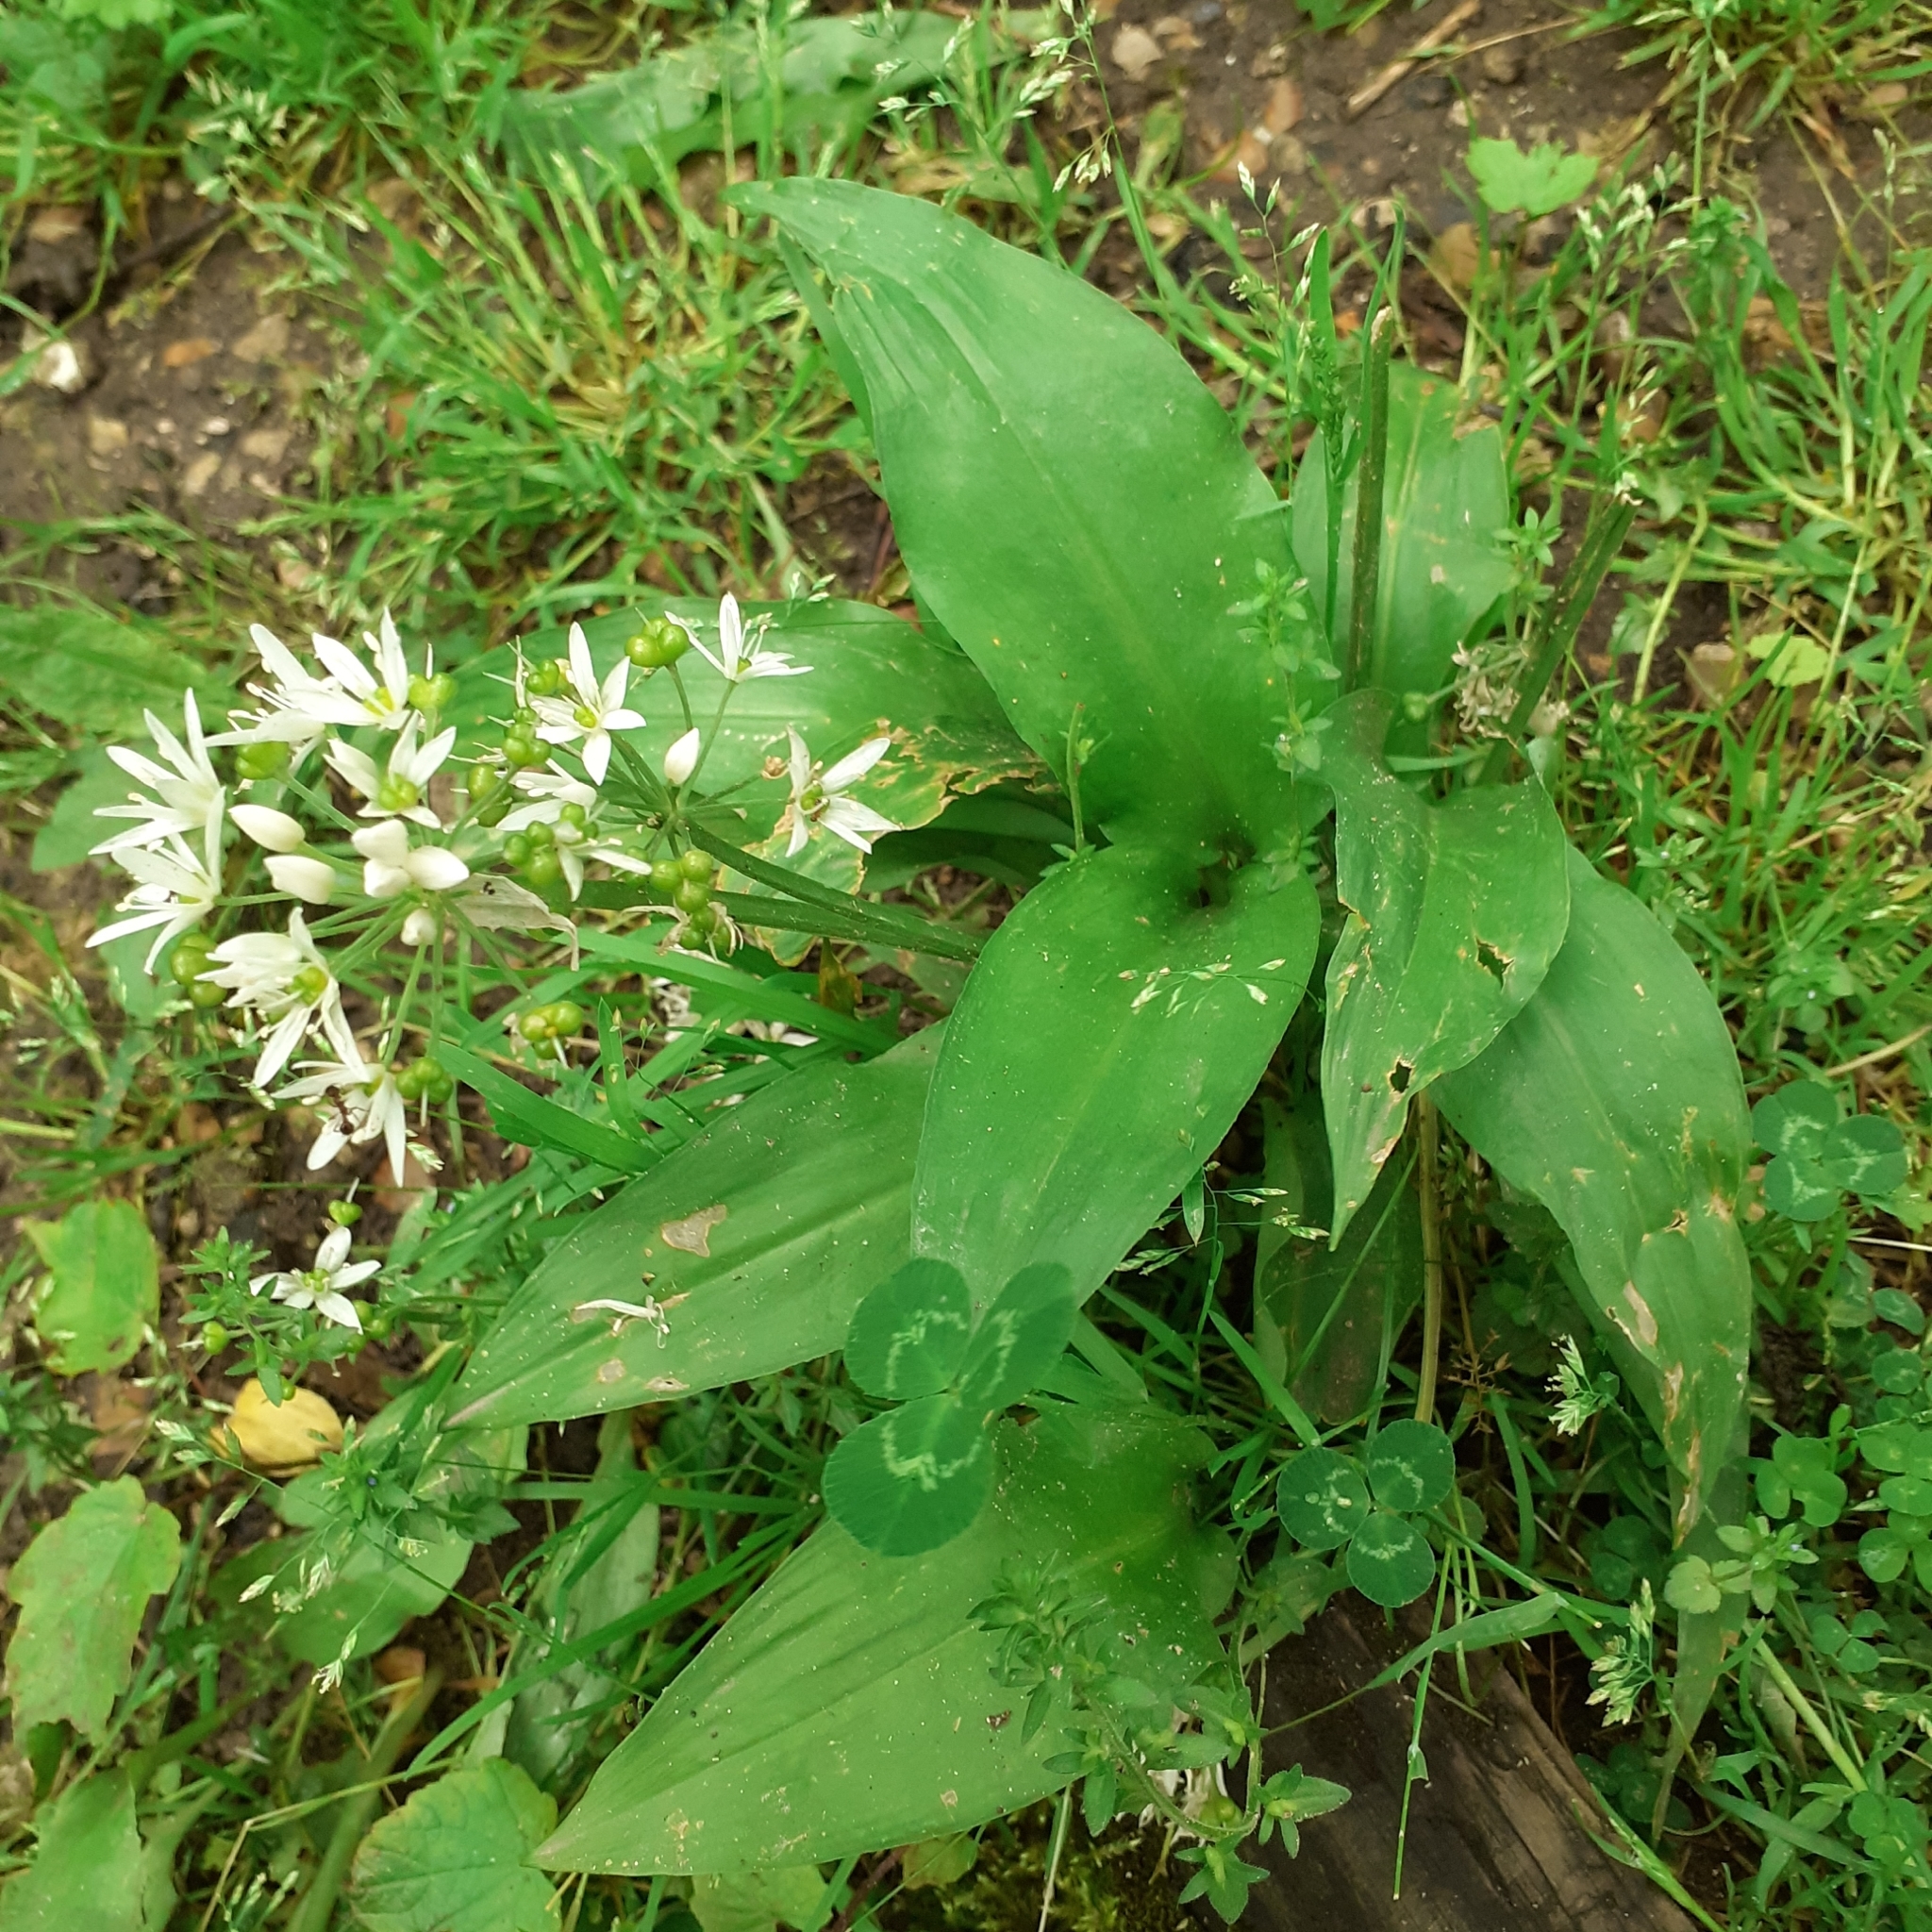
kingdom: Plantae
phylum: Tracheophyta
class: Liliopsida
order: Asparagales
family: Amaryllidaceae
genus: Allium
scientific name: Allium ursinum
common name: Ramsons
